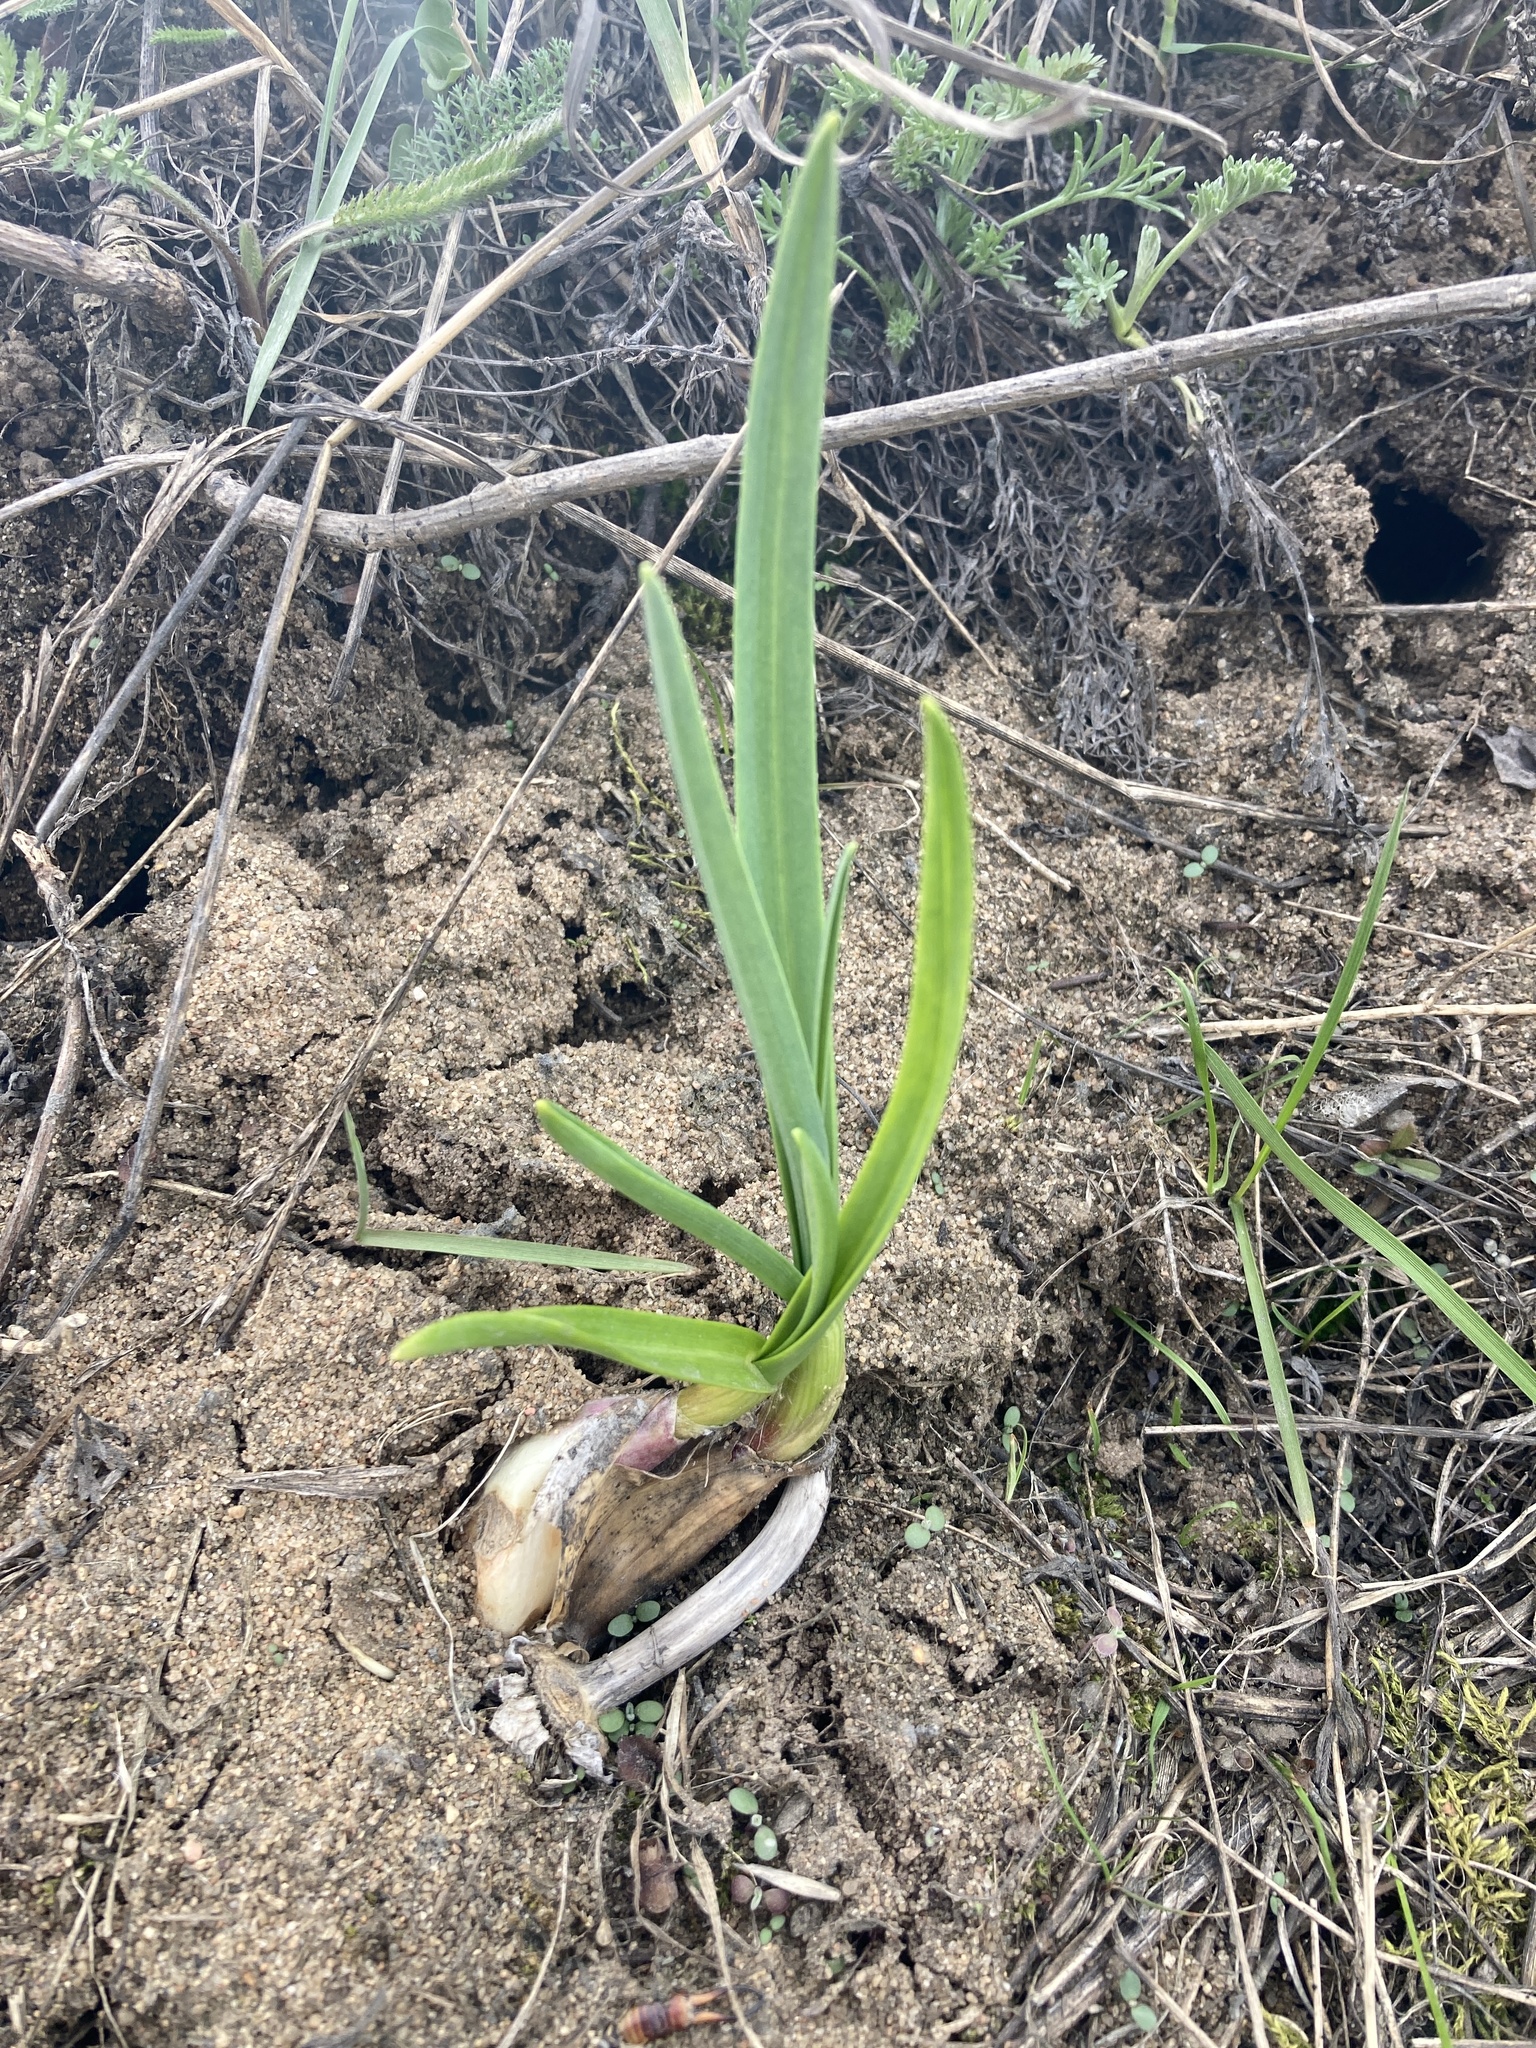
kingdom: Plantae
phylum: Tracheophyta
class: Liliopsida
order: Asparagales
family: Amaryllidaceae
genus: Allium
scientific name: Allium sativum
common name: Garlic
